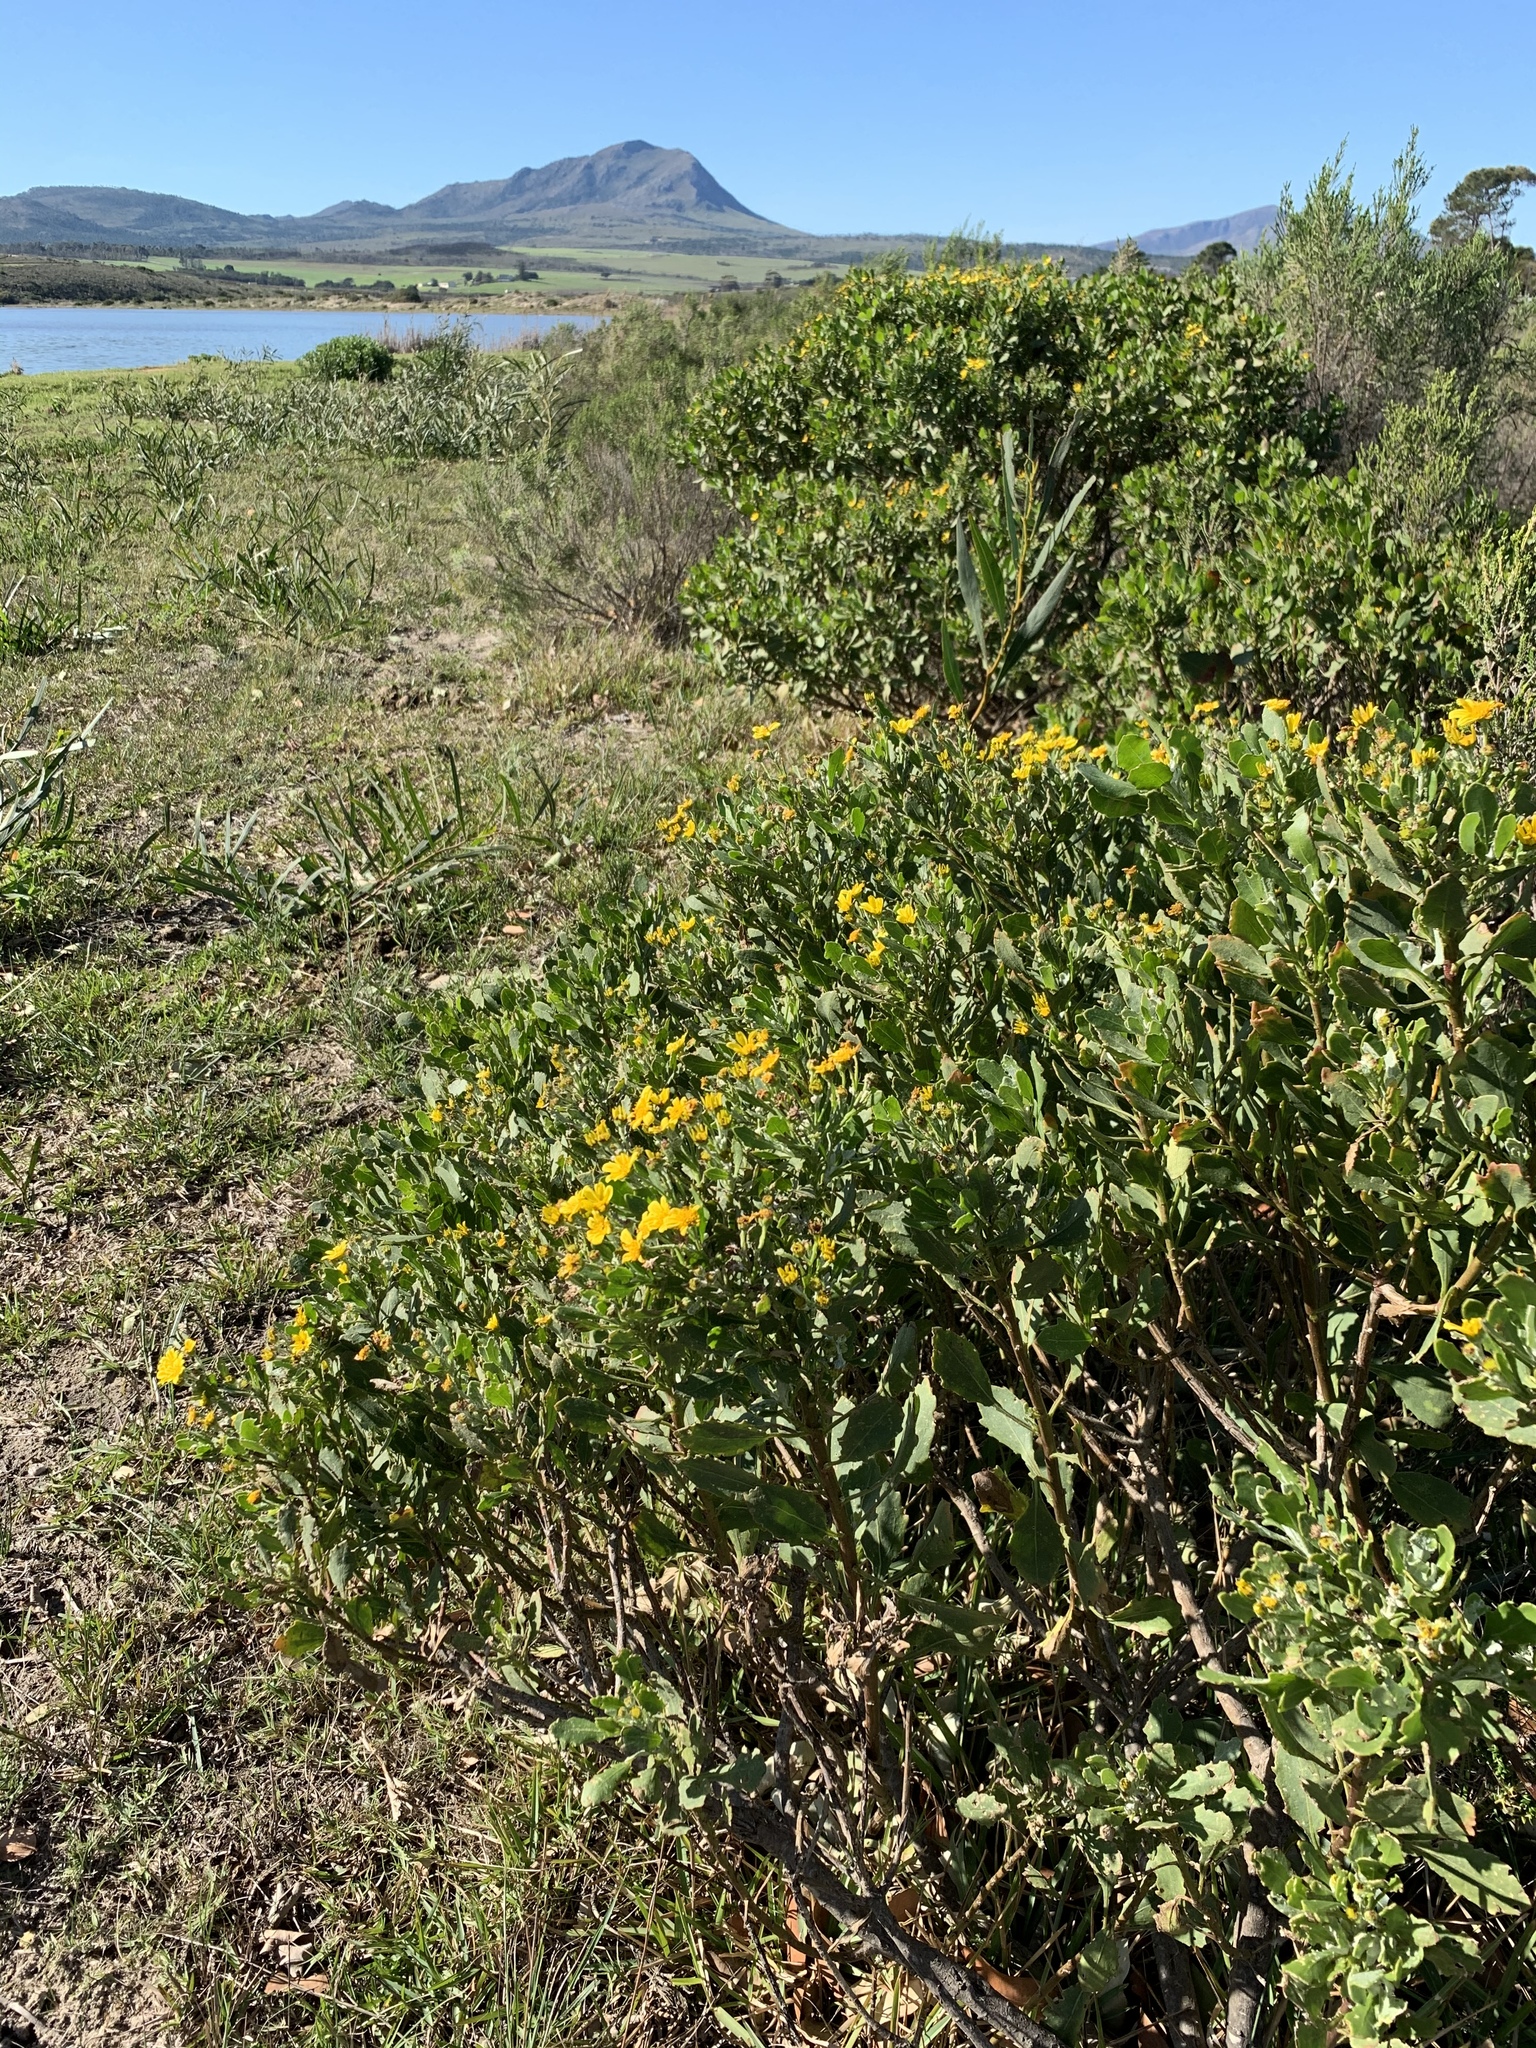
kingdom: Plantae
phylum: Tracheophyta
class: Magnoliopsida
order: Asterales
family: Asteraceae
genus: Osteospermum
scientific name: Osteospermum moniliferum
